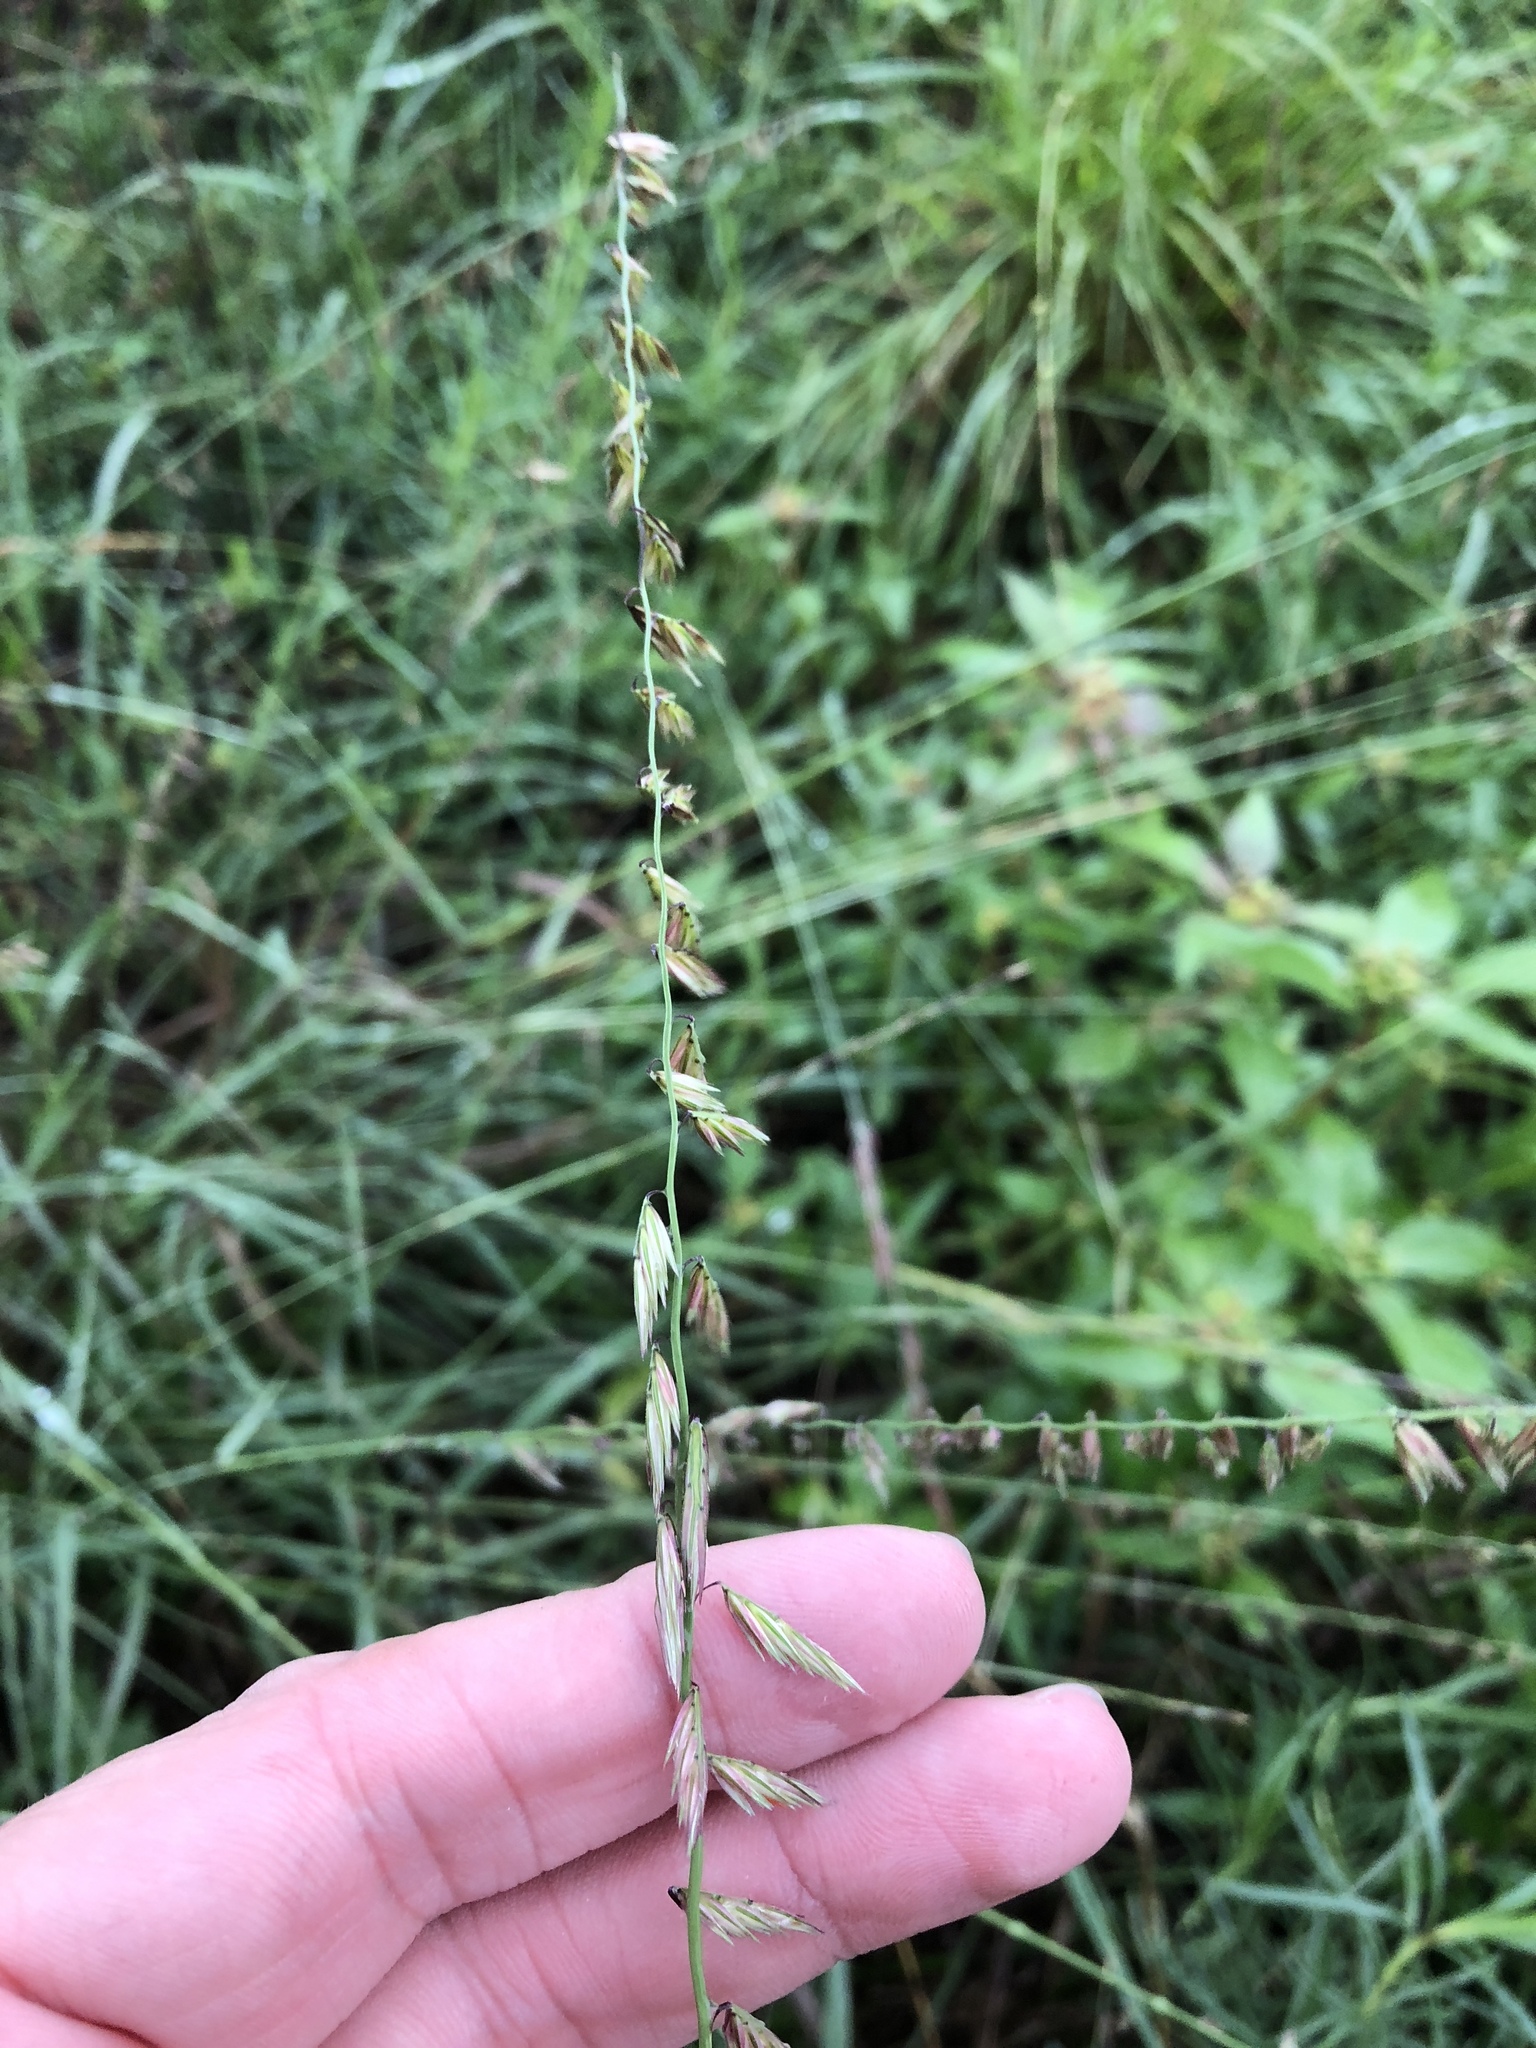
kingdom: Plantae
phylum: Tracheophyta
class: Liliopsida
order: Poales
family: Poaceae
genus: Bouteloua
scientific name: Bouteloua curtipendula
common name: Side-oats grama
